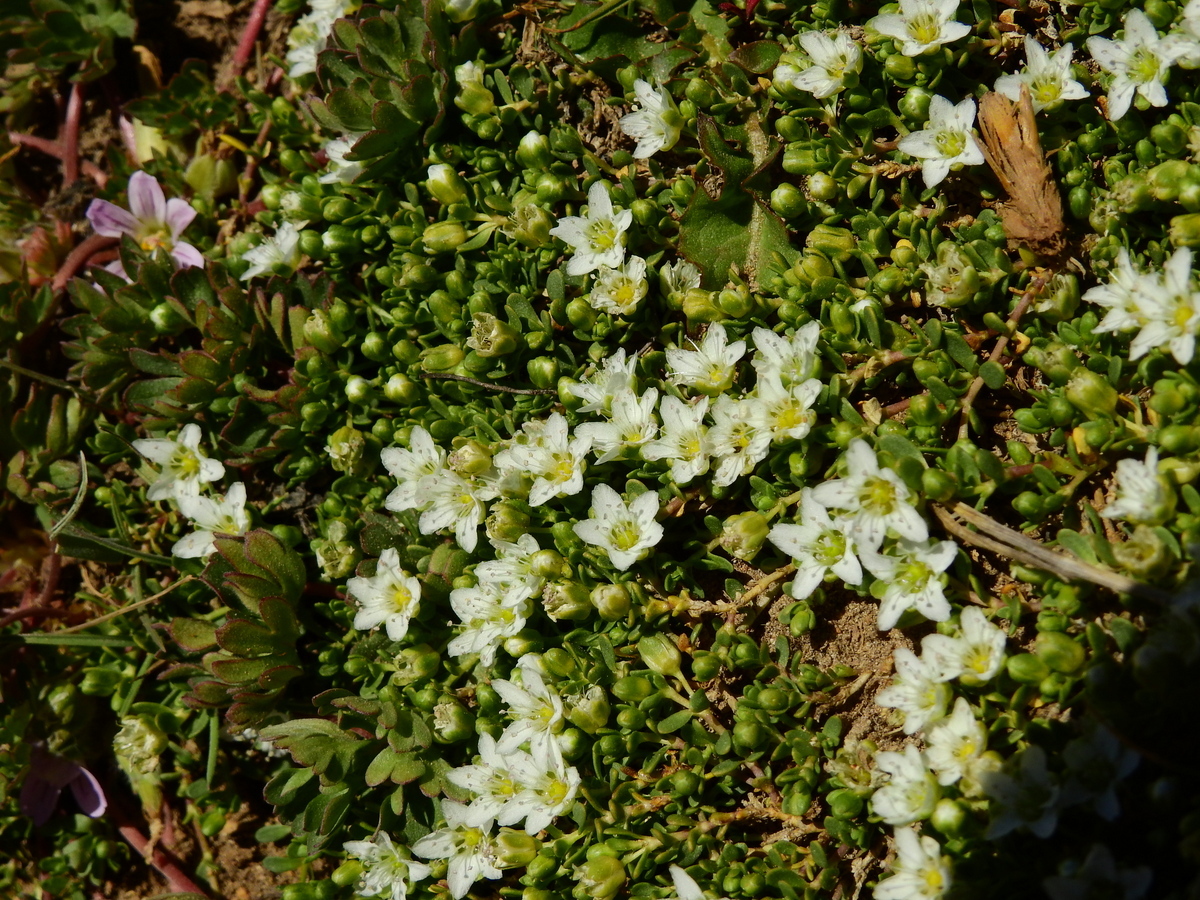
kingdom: Plantae
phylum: Tracheophyta
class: Magnoliopsida
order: Caryophyllales
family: Caryophyllaceae
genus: Arenaria
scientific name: Arenaria serpens
